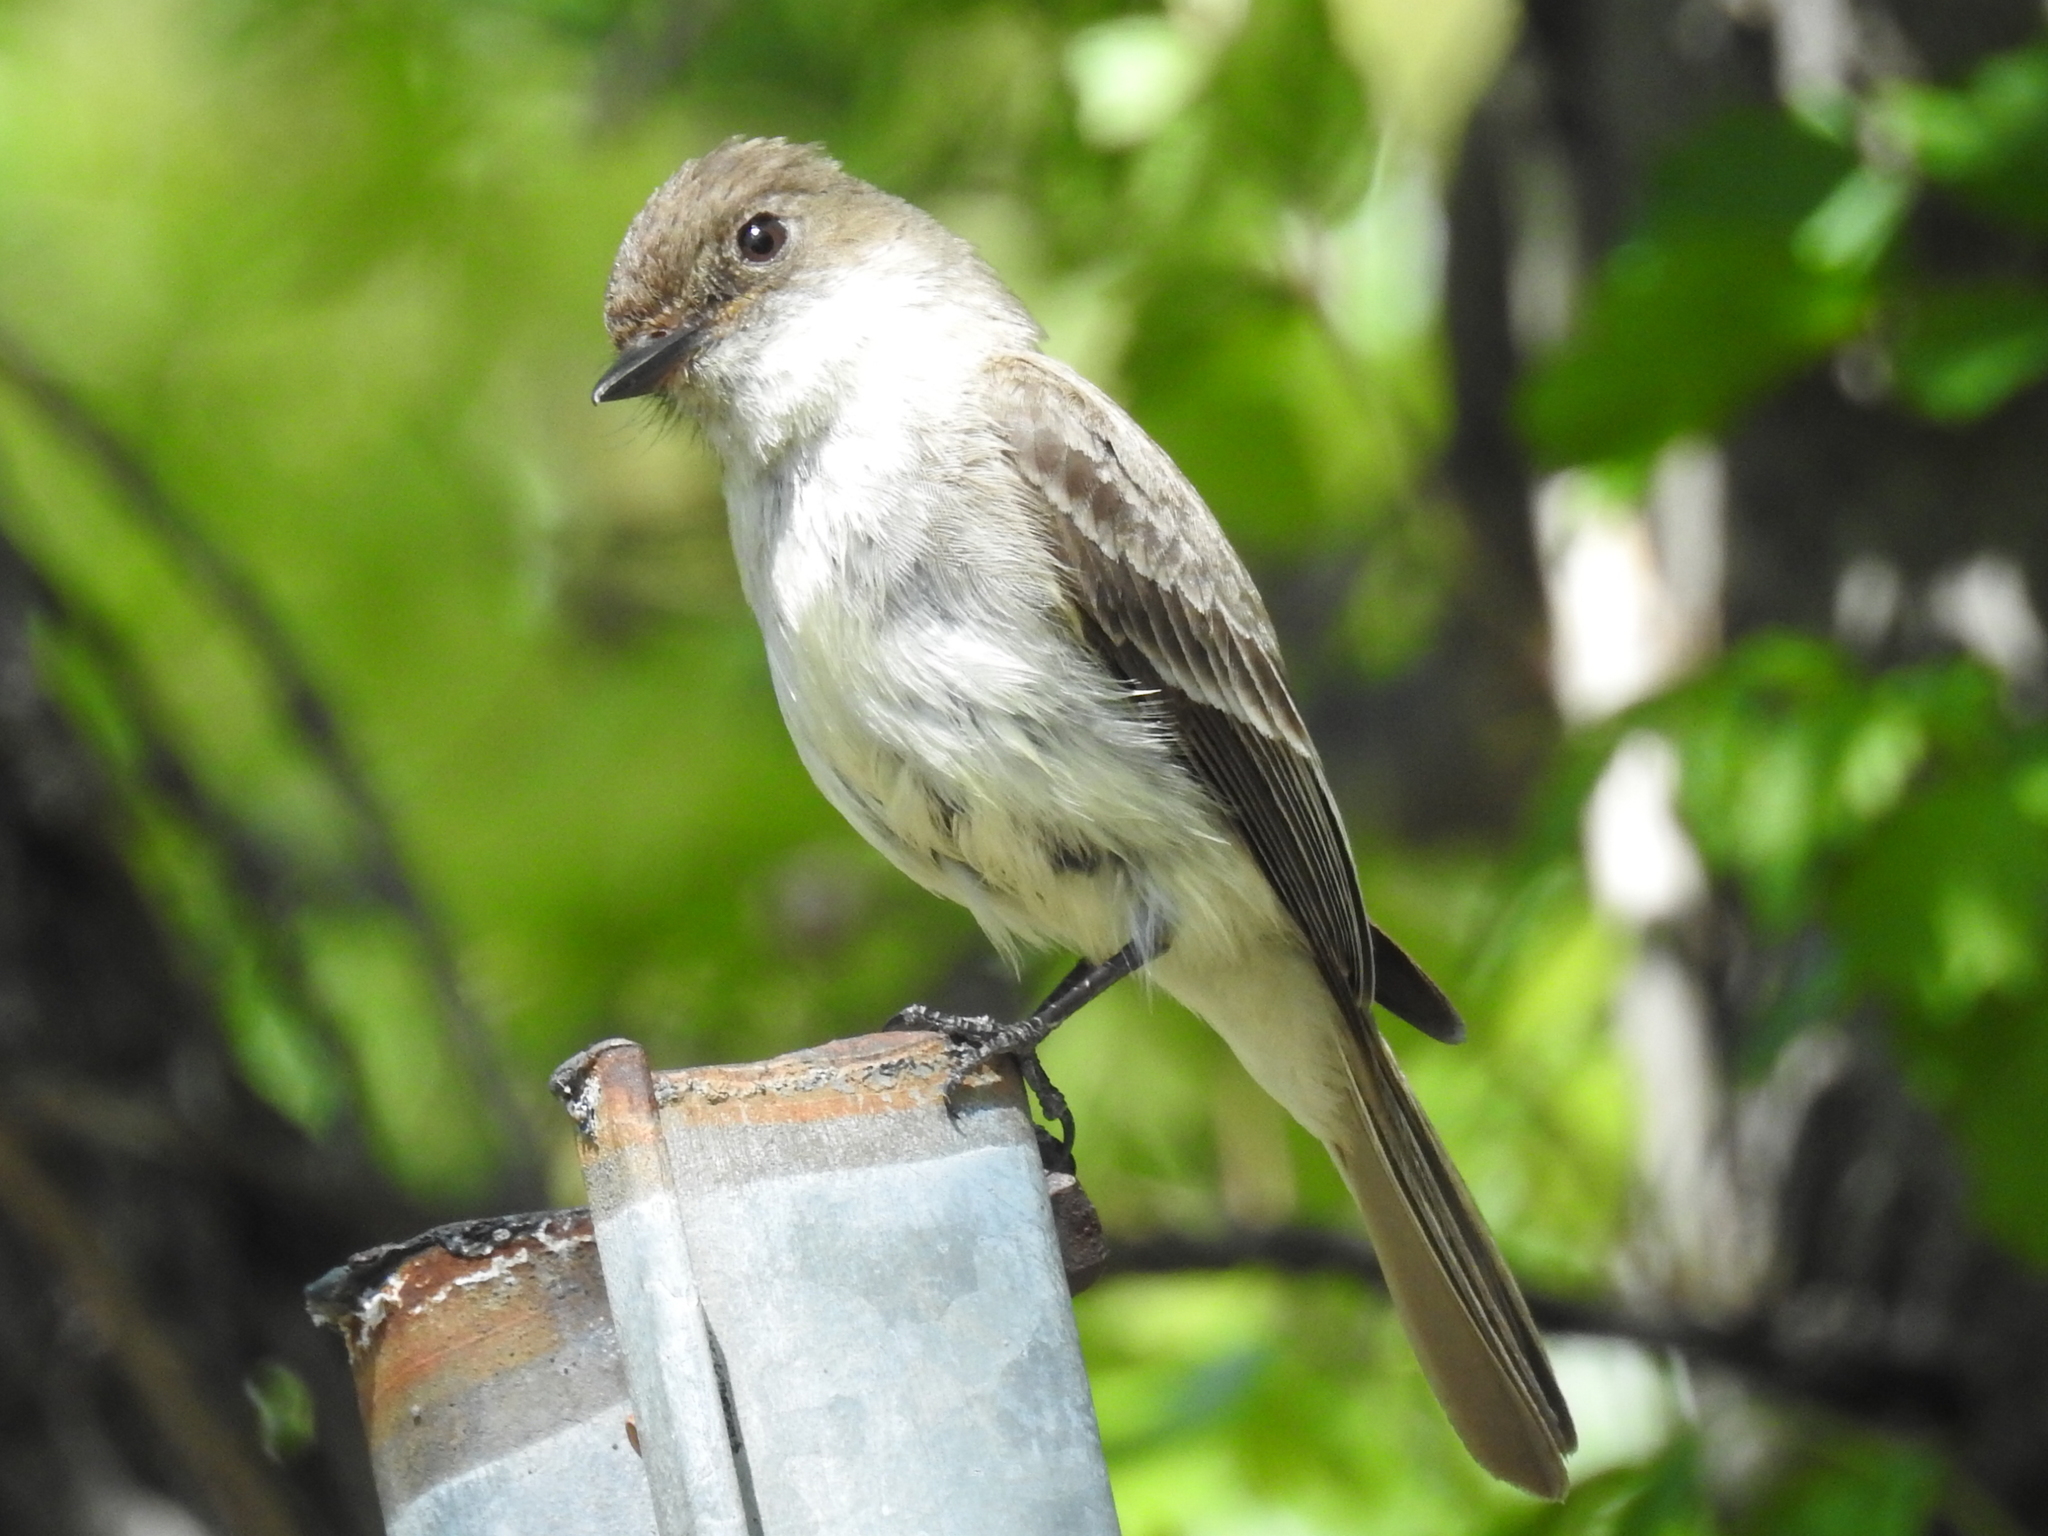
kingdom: Animalia
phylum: Chordata
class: Aves
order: Passeriformes
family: Tyrannidae
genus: Sayornis
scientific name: Sayornis phoebe
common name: Eastern phoebe
